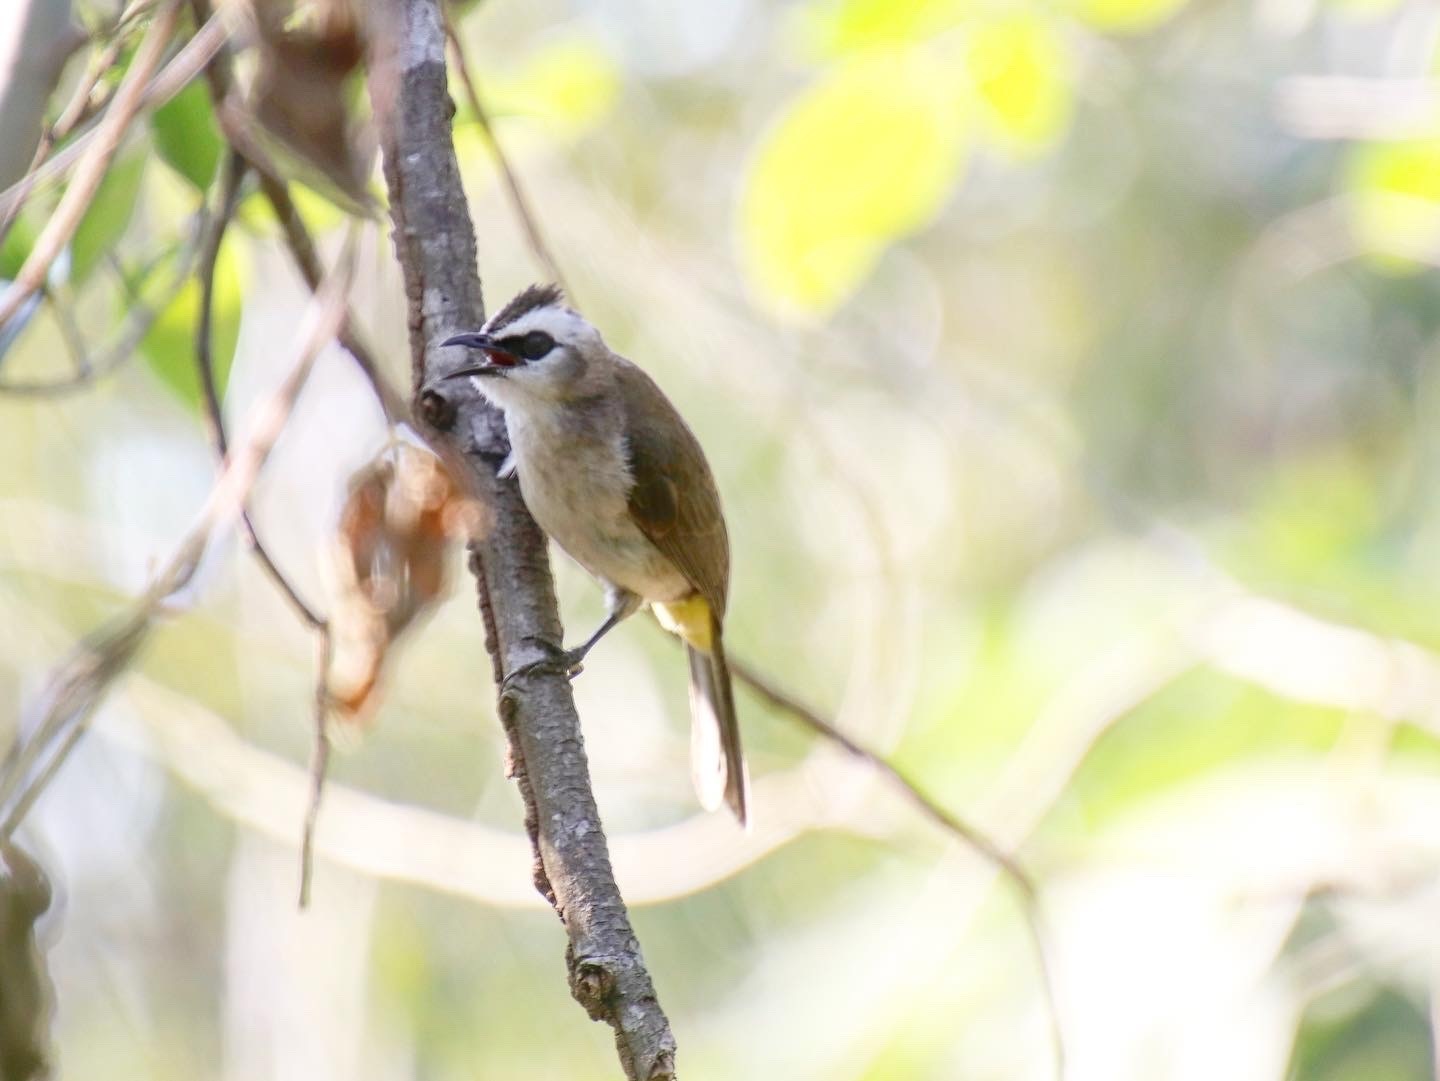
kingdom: Animalia
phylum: Chordata
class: Aves
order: Passeriformes
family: Pycnonotidae
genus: Pycnonotus
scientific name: Pycnonotus goiavier
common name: Yellow-vented bulbul
